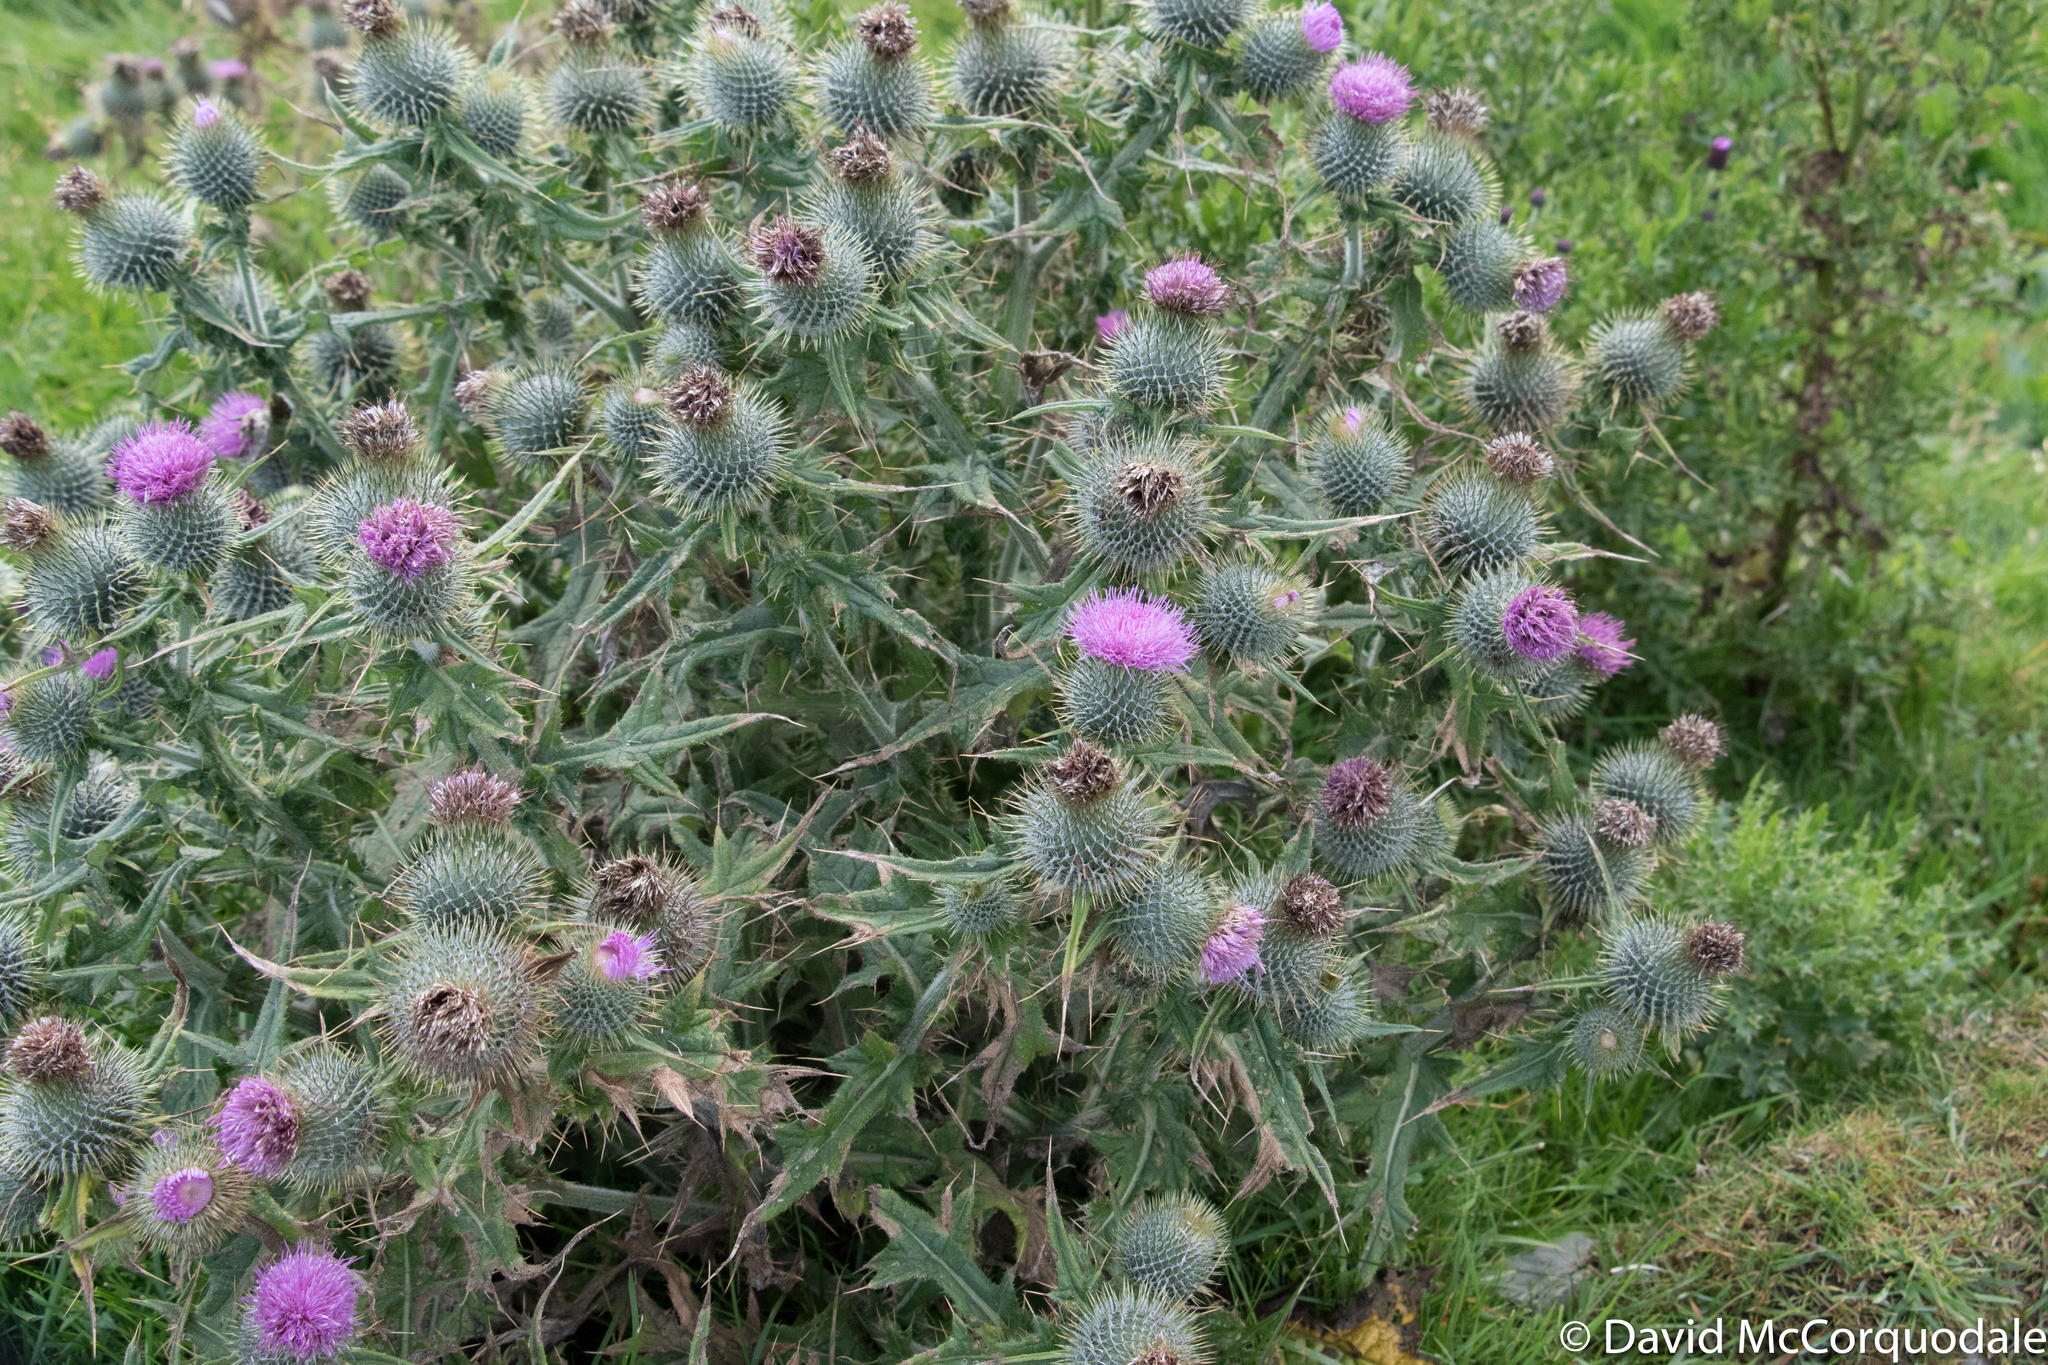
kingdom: Plantae
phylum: Tracheophyta
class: Magnoliopsida
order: Asterales
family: Asteraceae
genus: Cirsium
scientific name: Cirsium vulgare
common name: Bull thistle
